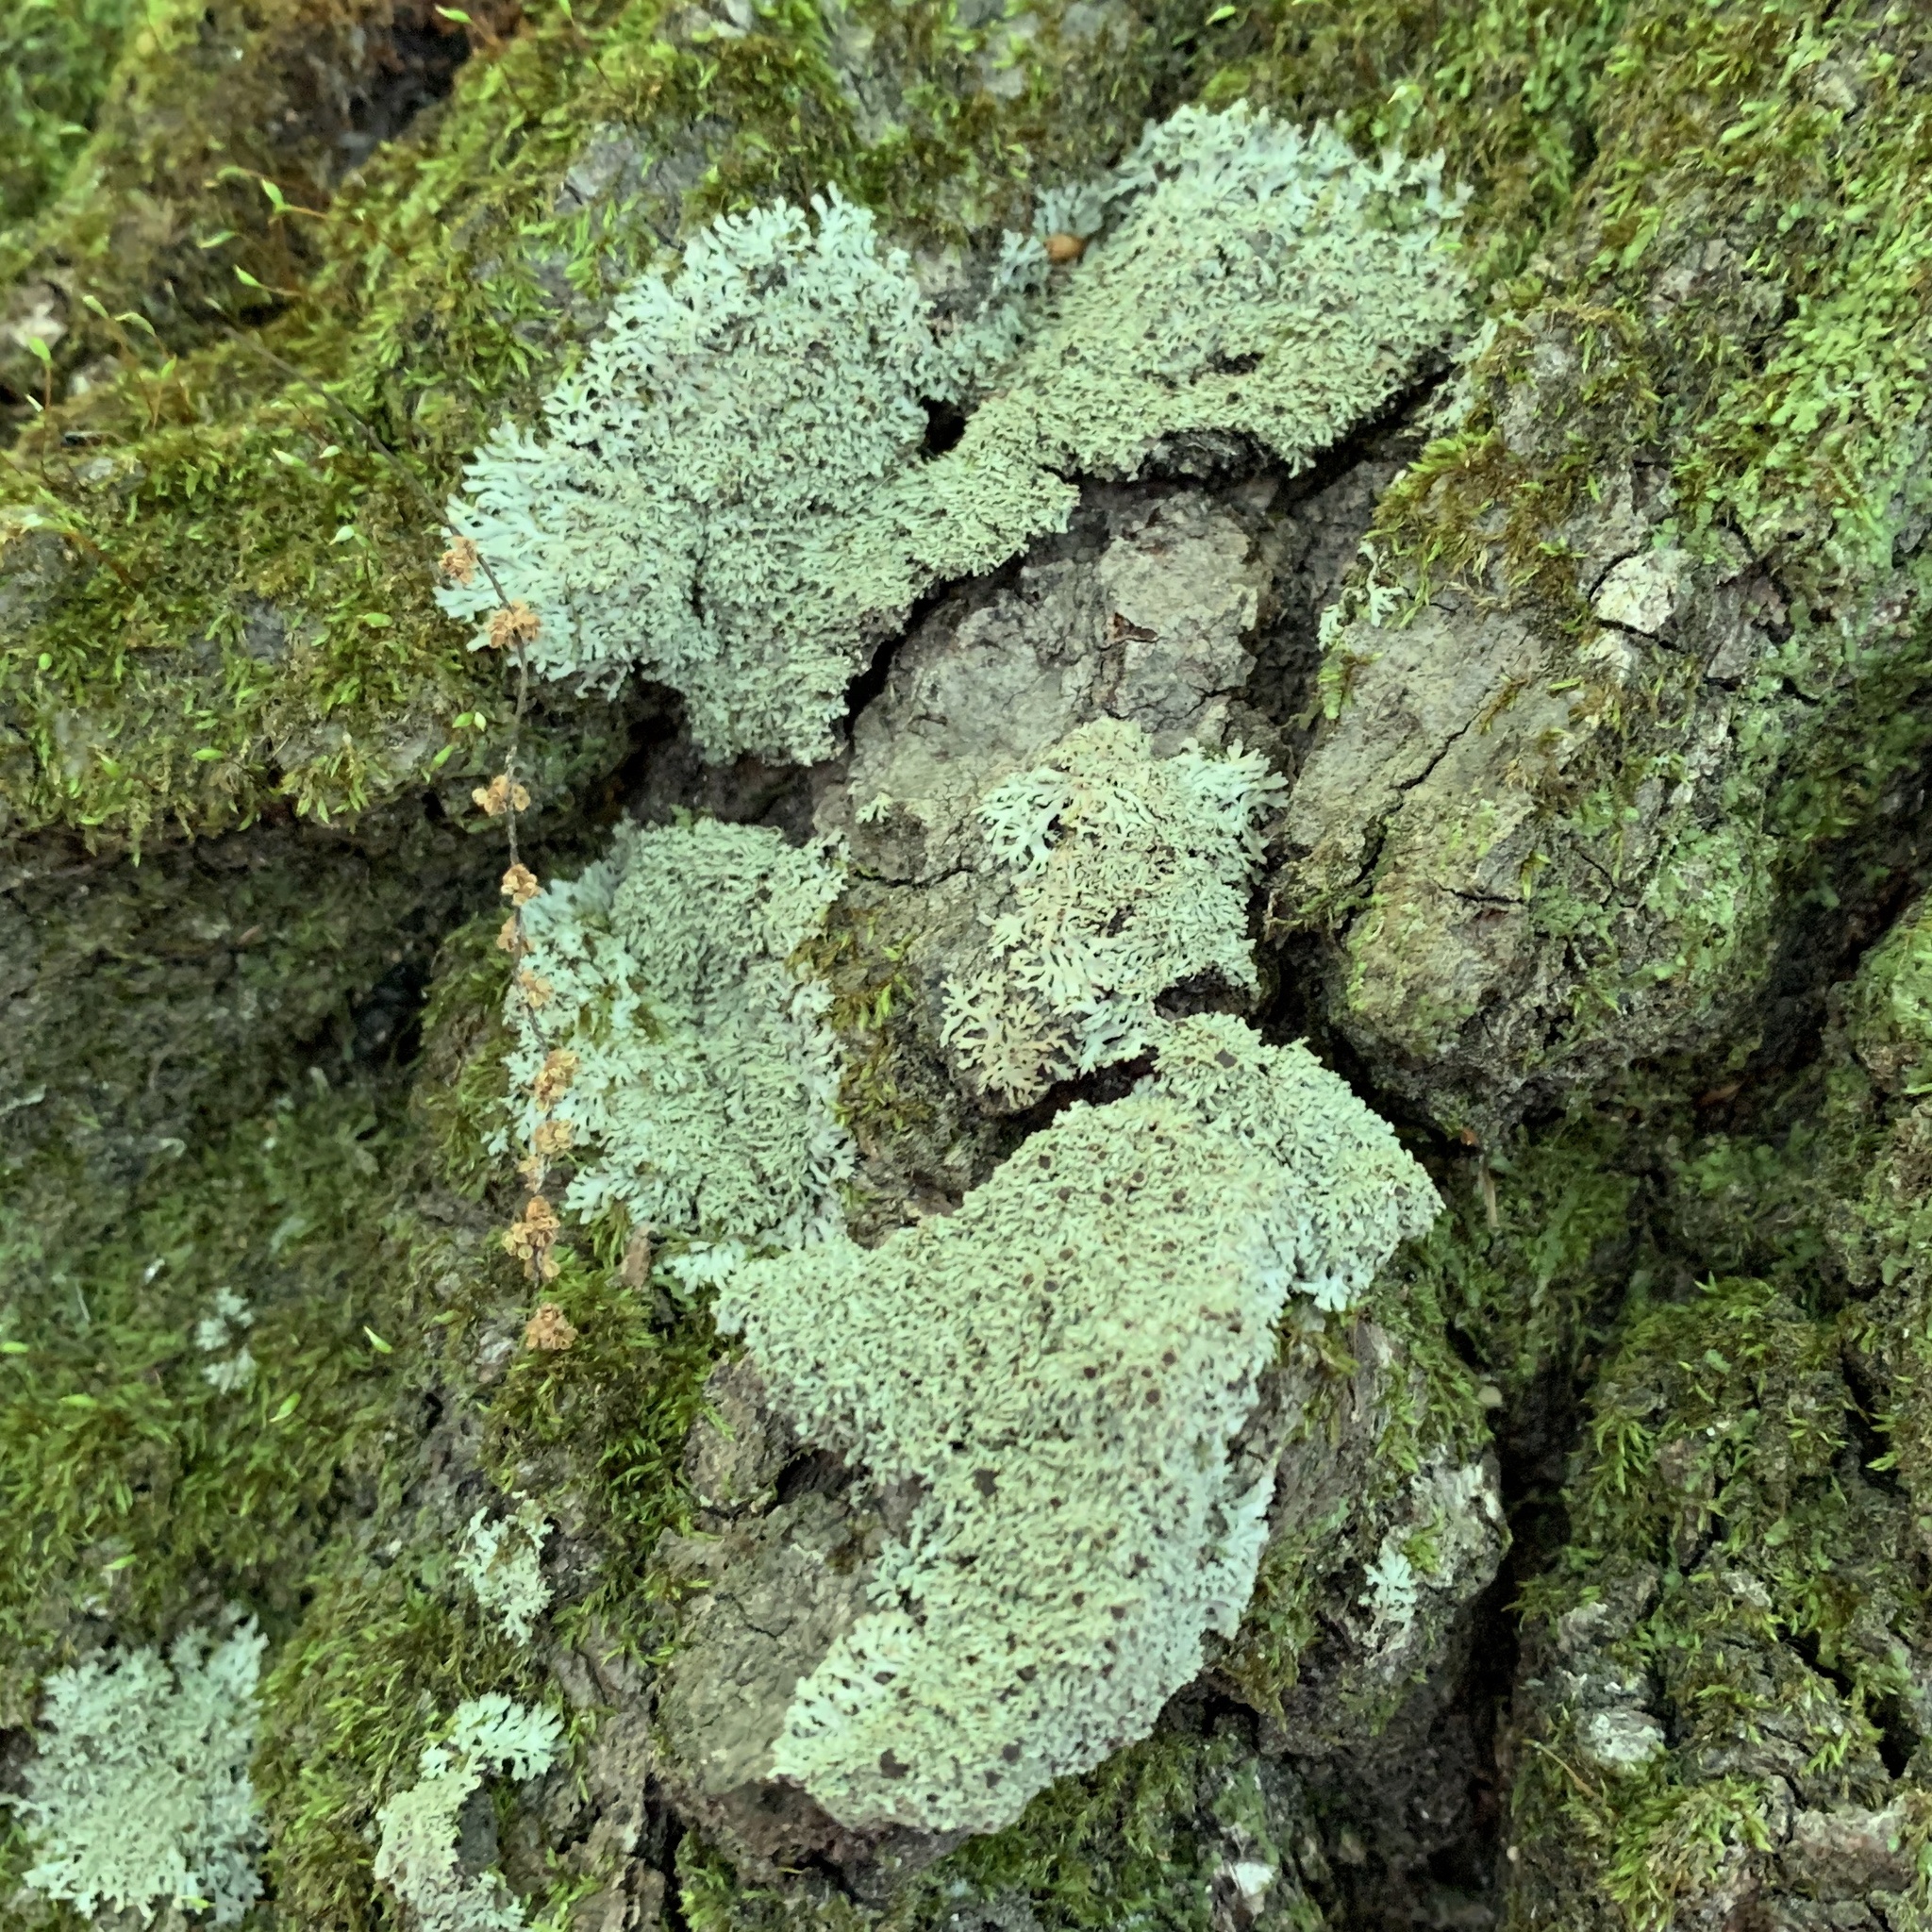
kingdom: Fungi
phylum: Ascomycota
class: Lecanoromycetes
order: Caliciales
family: Physciaceae
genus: Kurokawia
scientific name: Kurokawia palmulata
